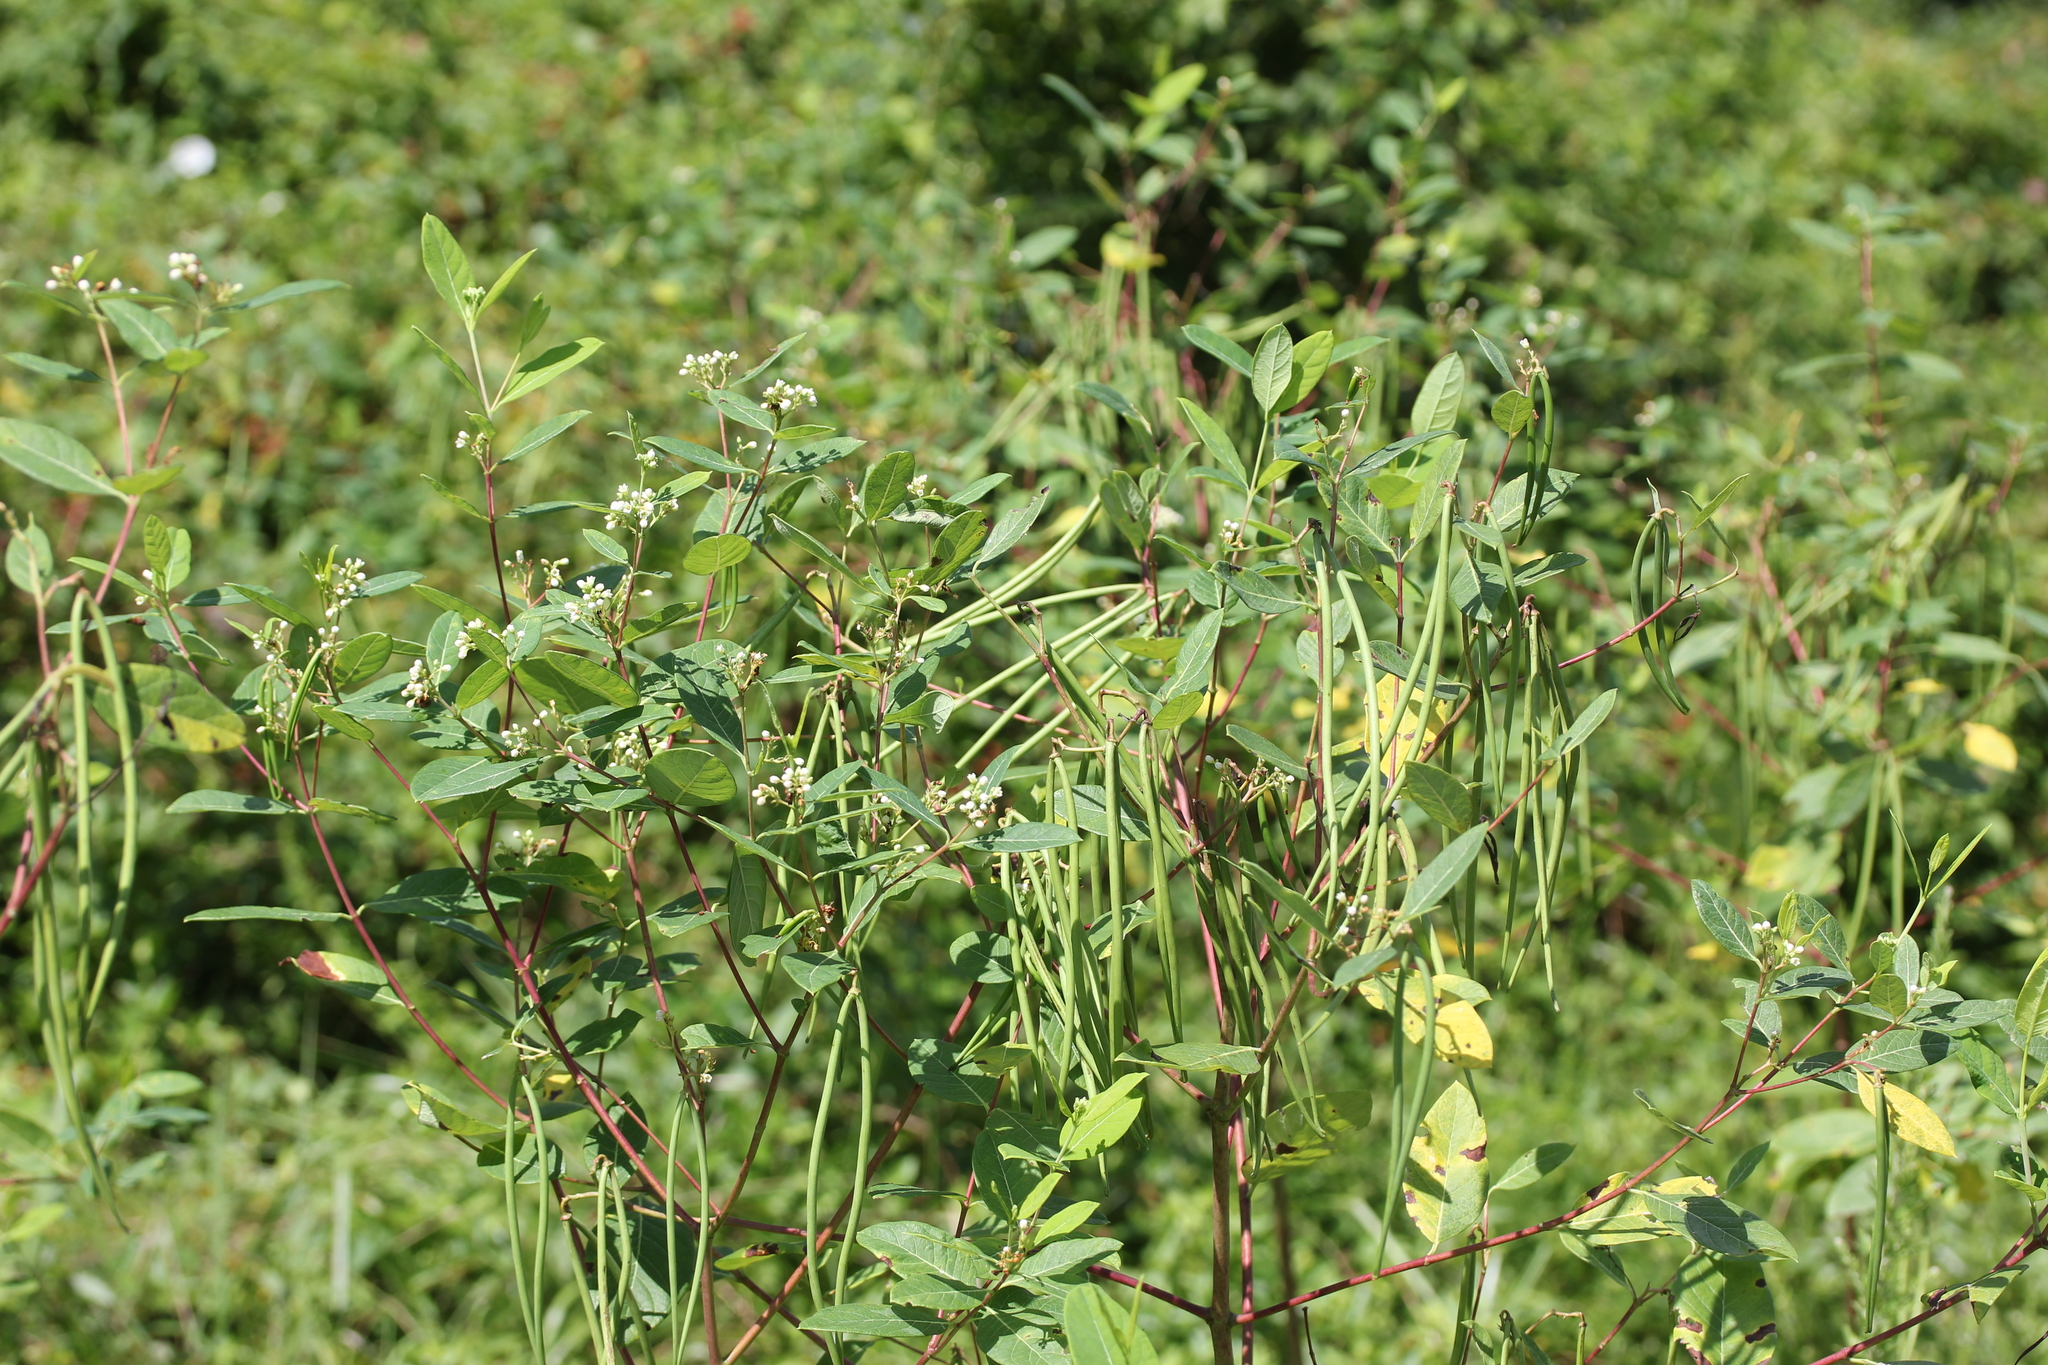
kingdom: Plantae
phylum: Tracheophyta
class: Magnoliopsida
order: Gentianales
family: Apocynaceae
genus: Apocynum
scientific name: Apocynum cannabinum
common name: Hemp dogbane
